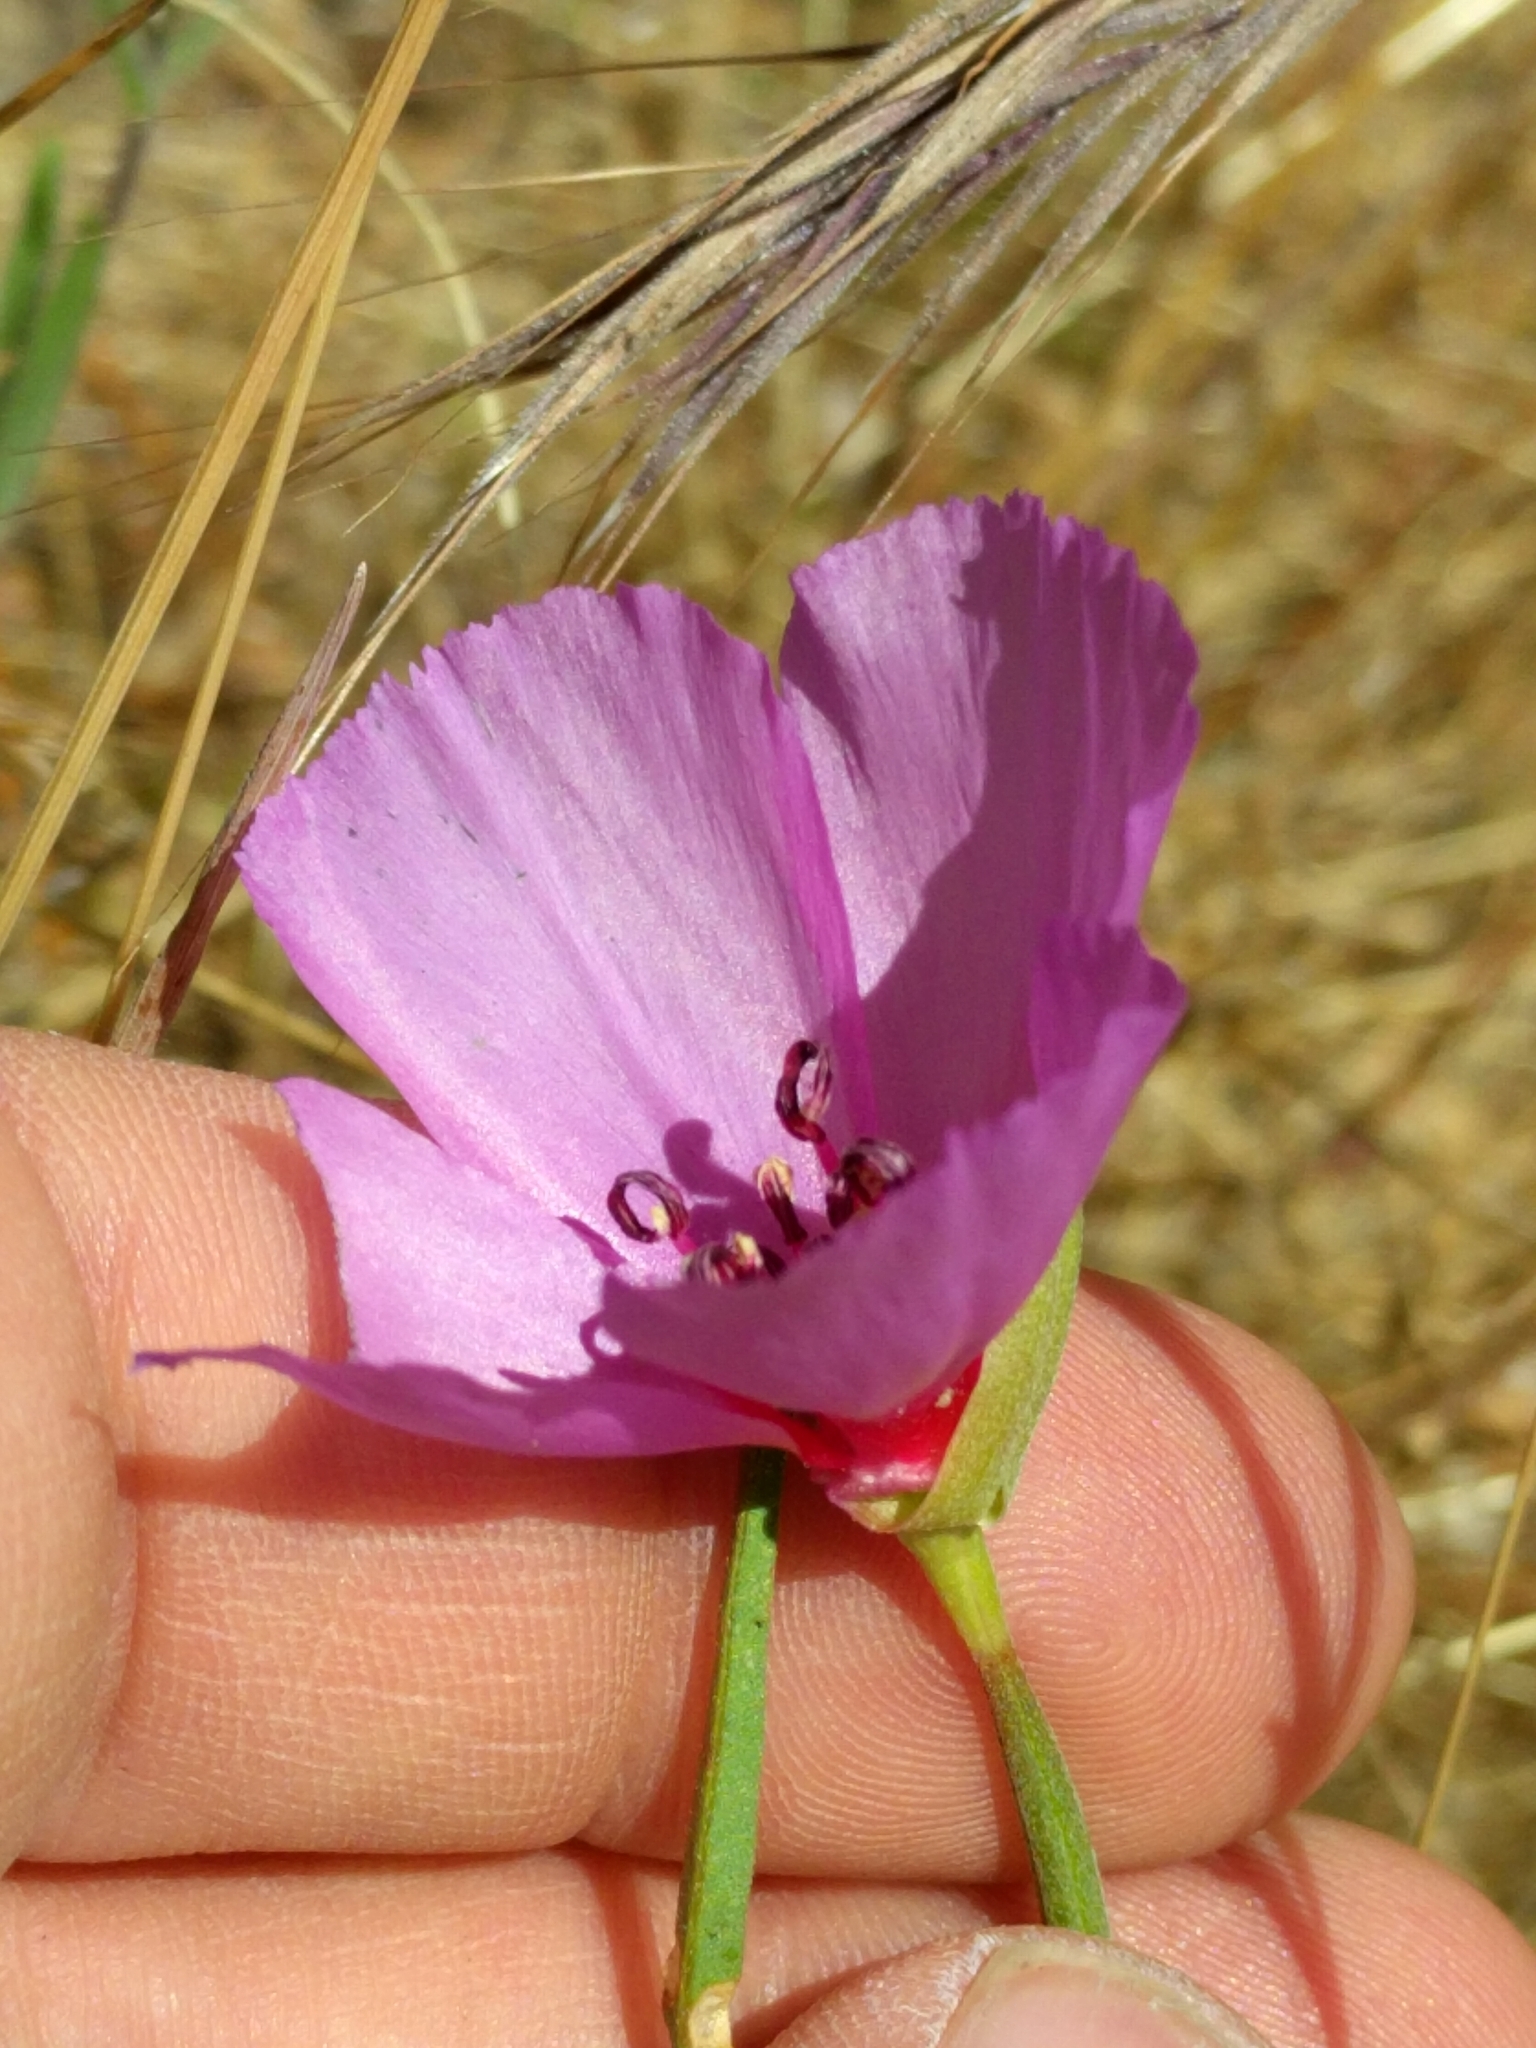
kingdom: Plantae
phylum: Tracheophyta
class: Magnoliopsida
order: Myrtales
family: Onagraceae
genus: Clarkia
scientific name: Clarkia rubicunda
